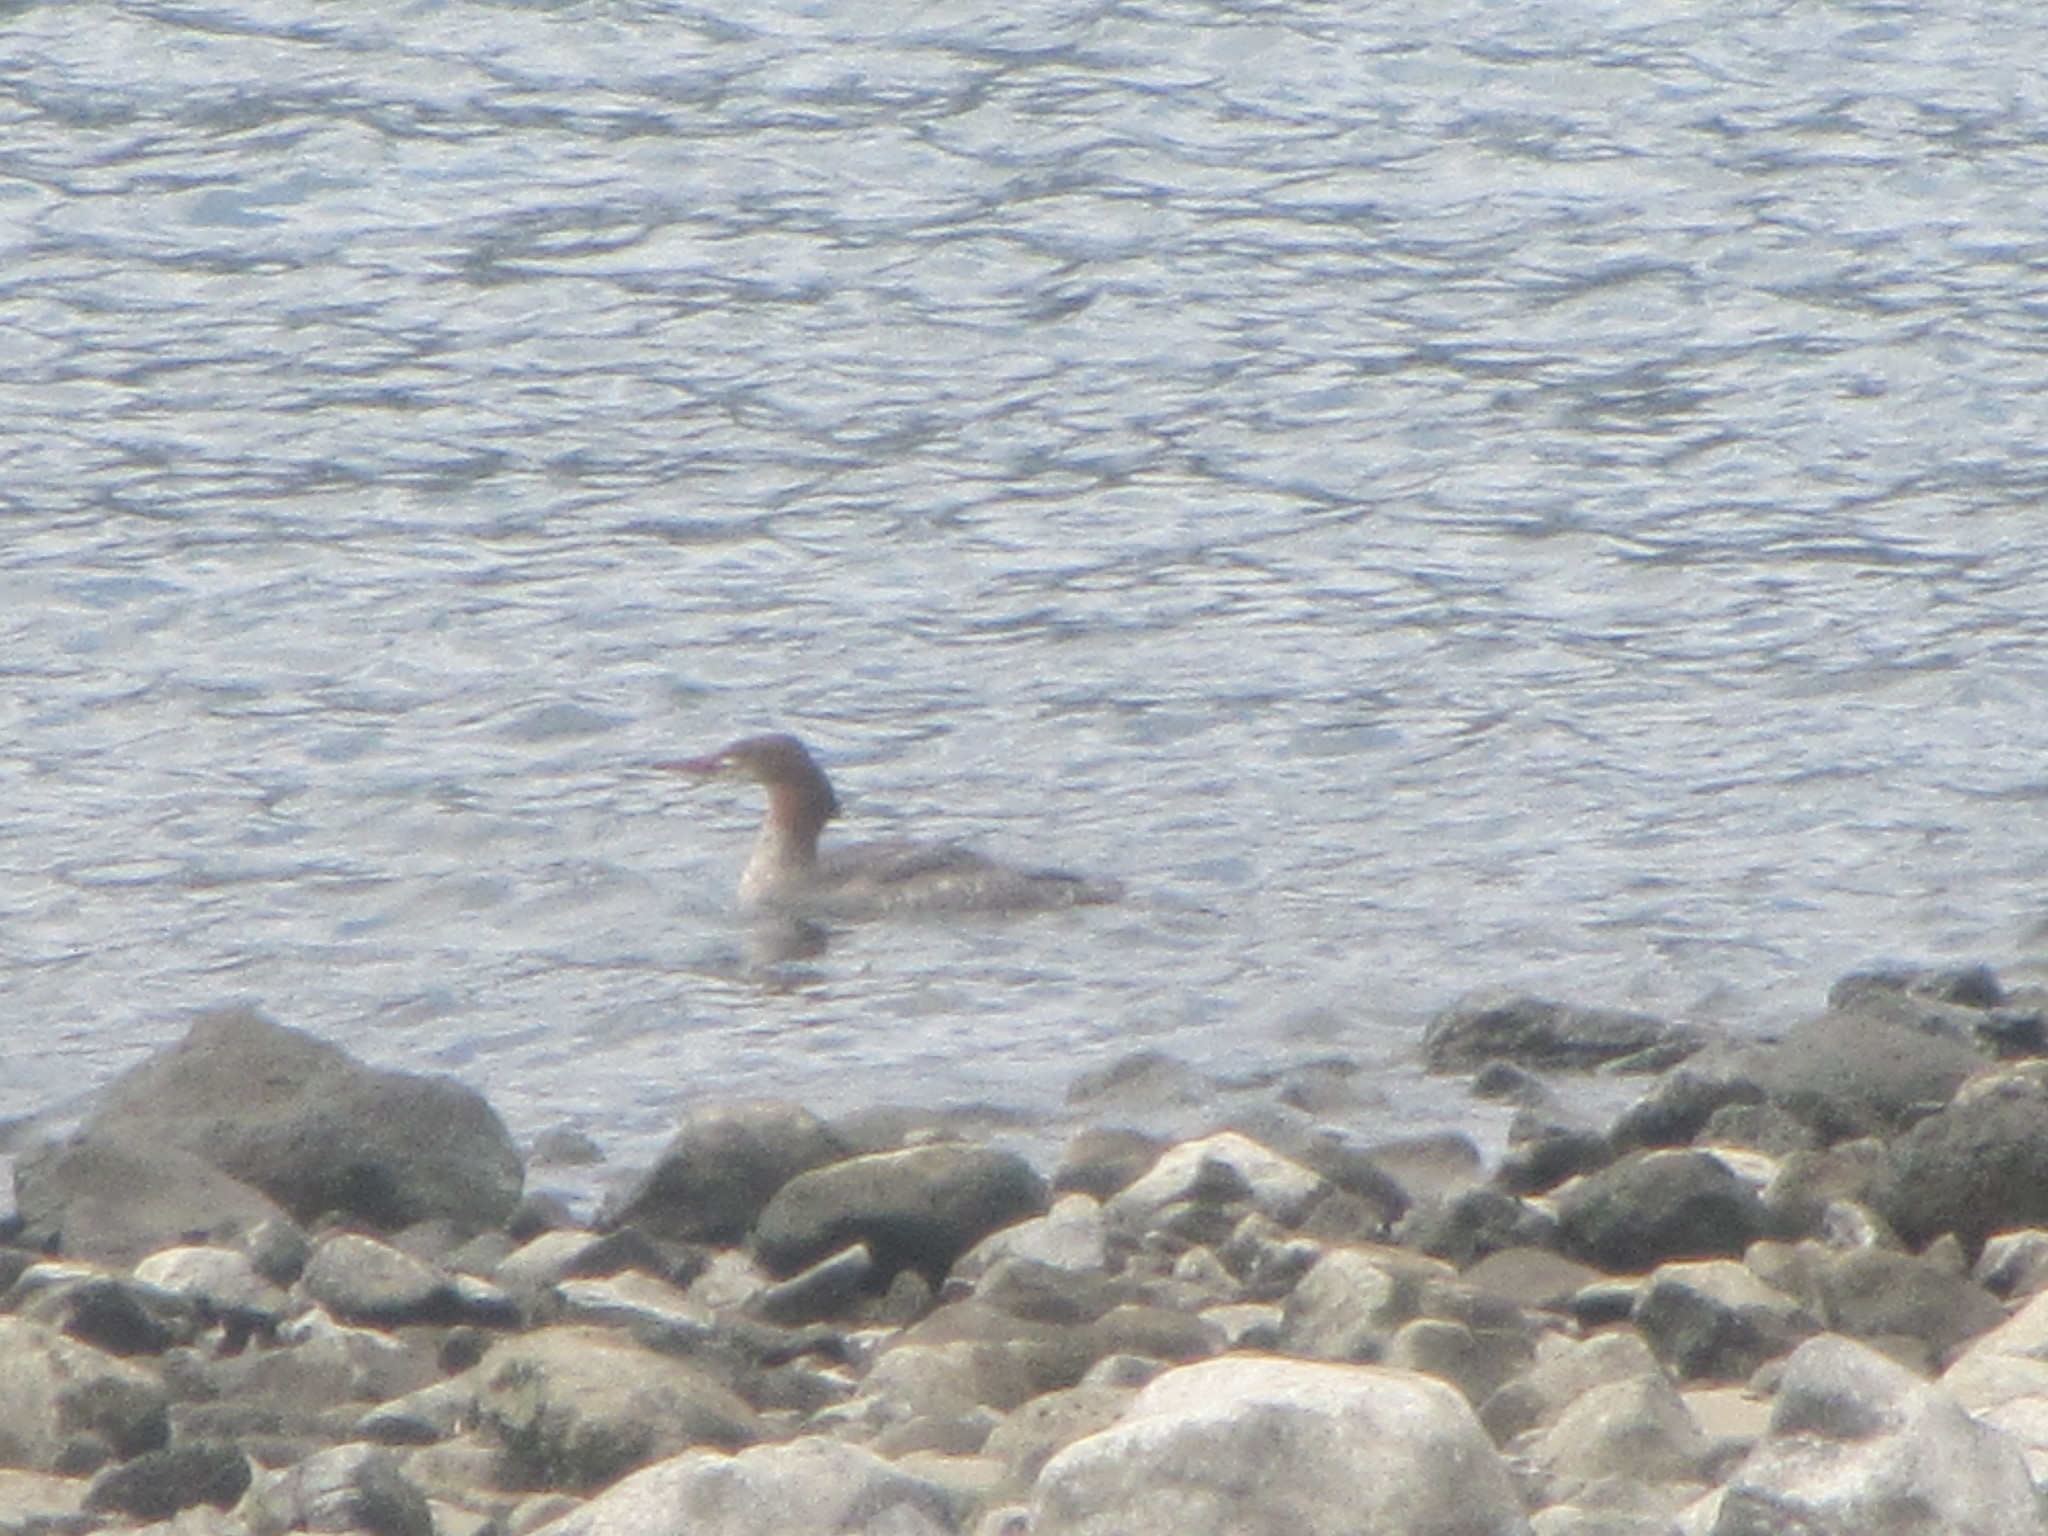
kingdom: Animalia
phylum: Chordata
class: Aves
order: Anseriformes
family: Anatidae
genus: Mergus
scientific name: Mergus merganser
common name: Common merganser
